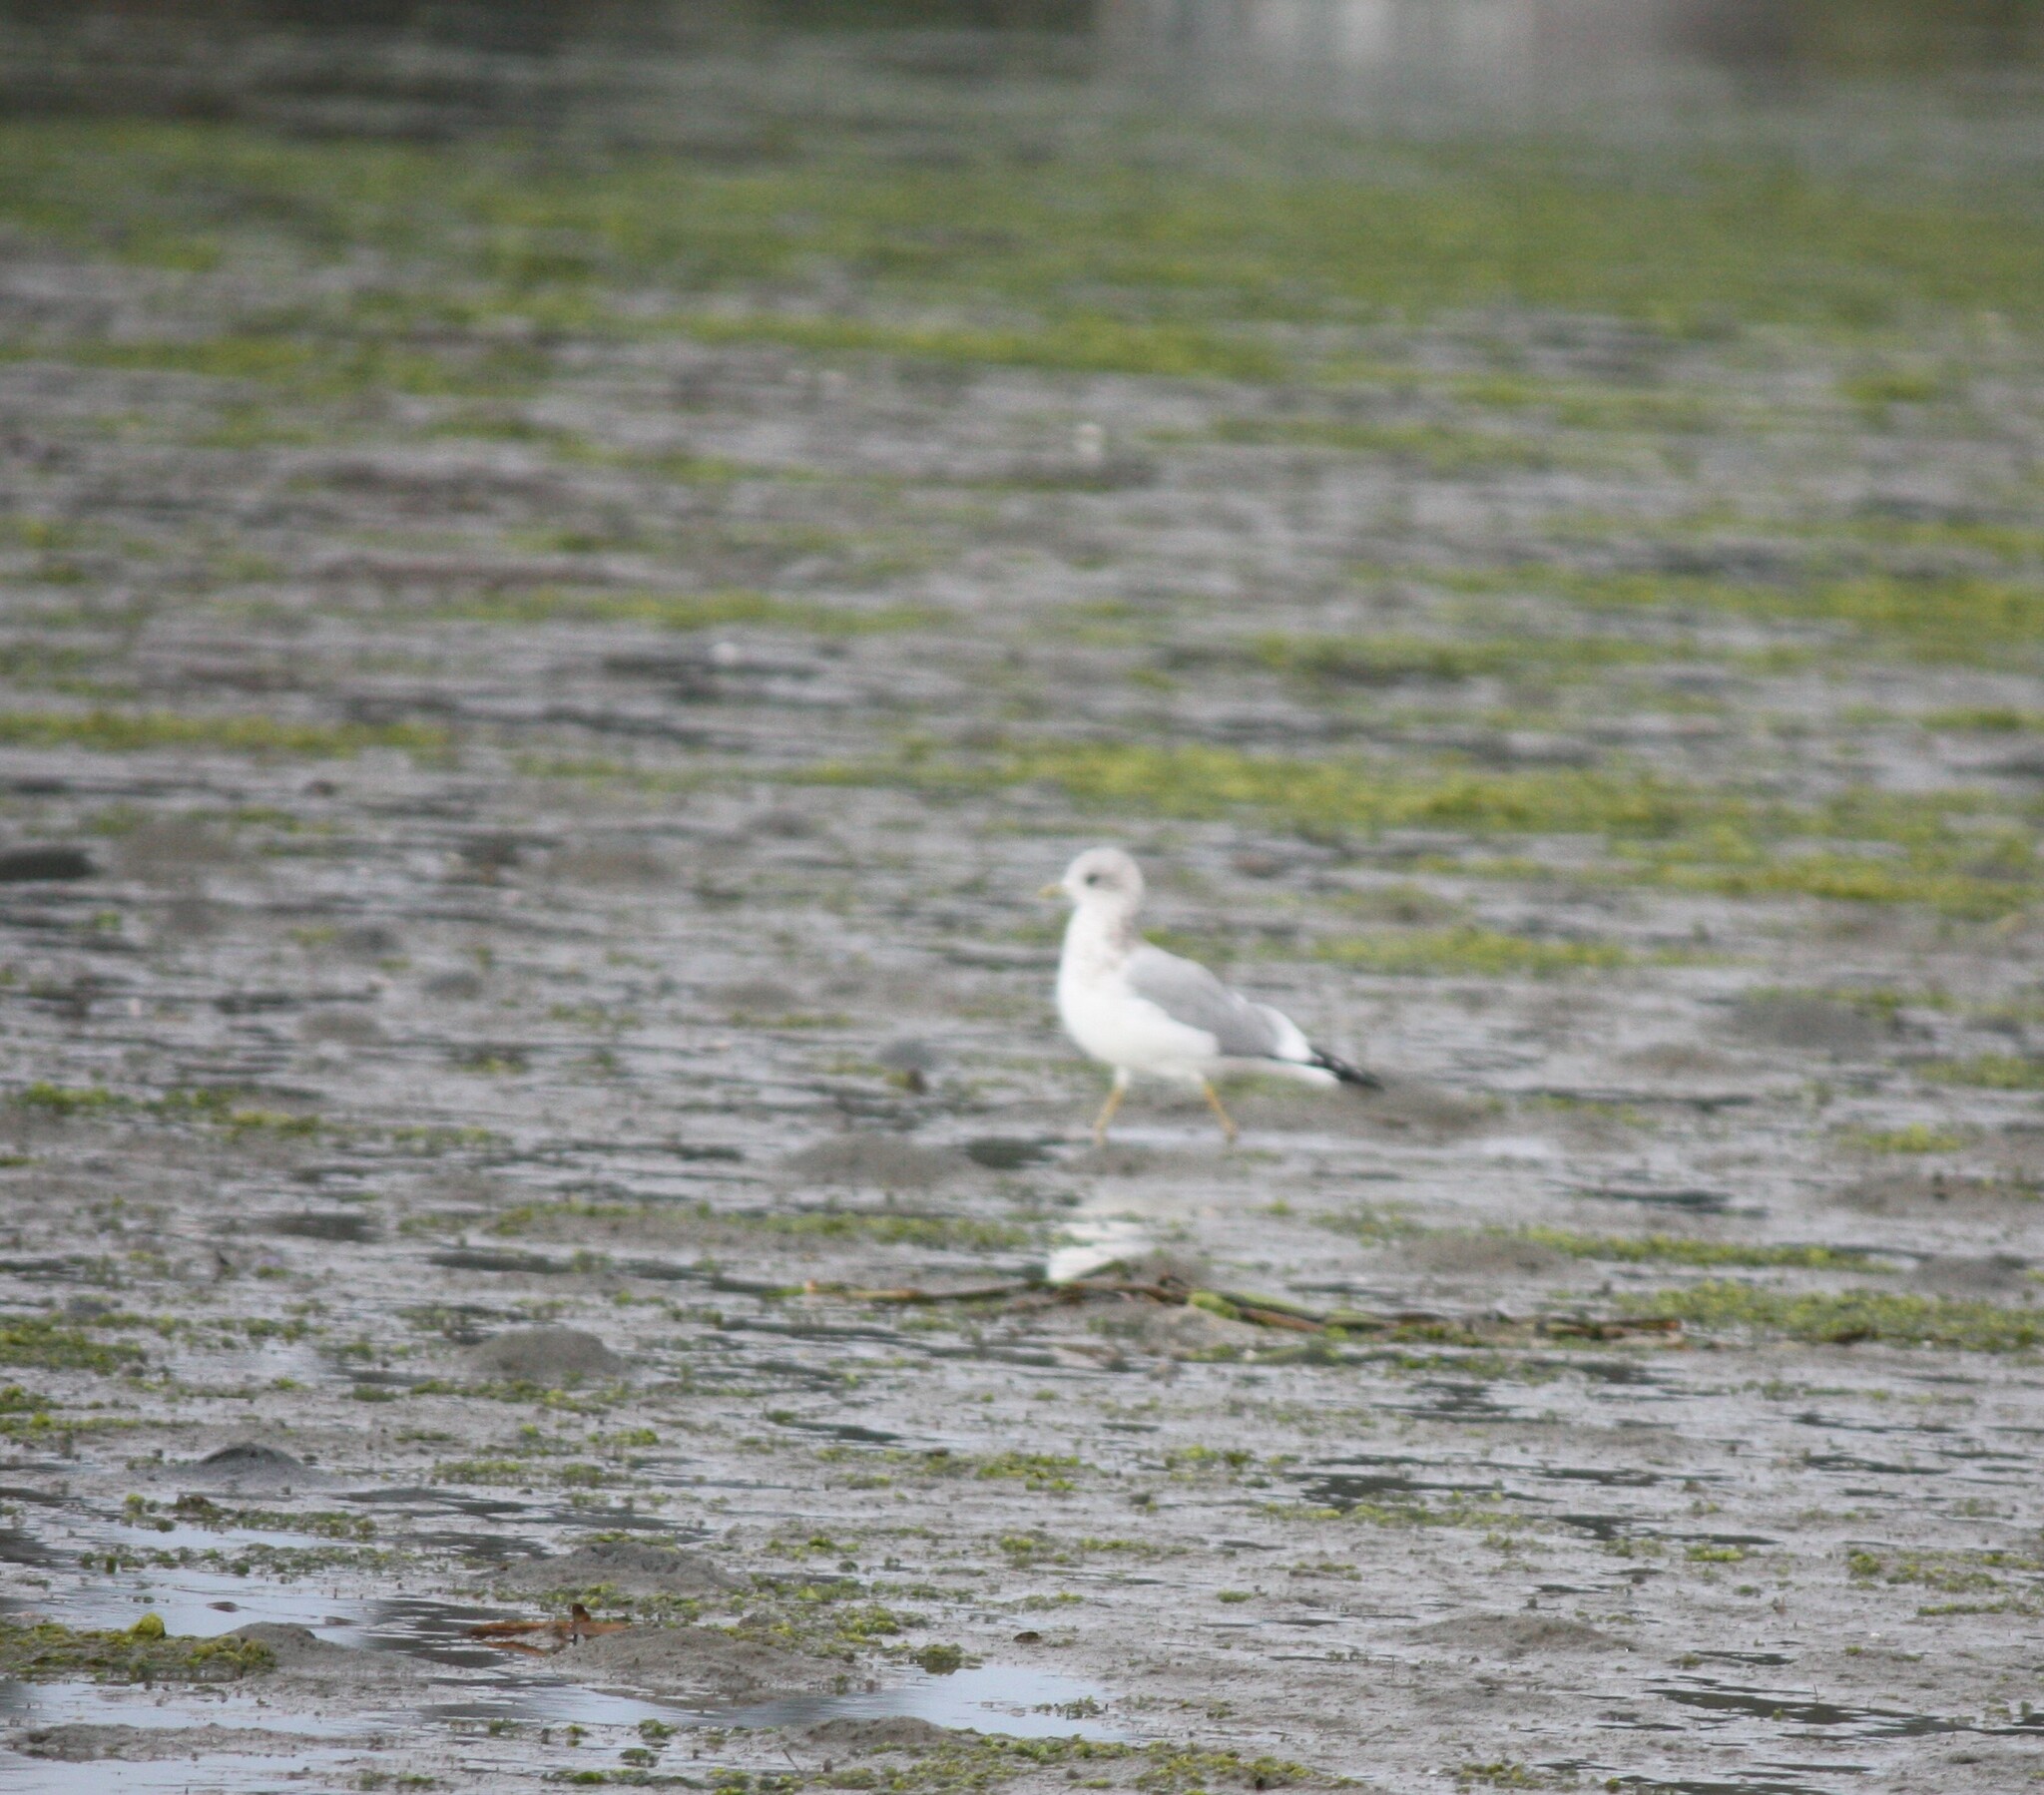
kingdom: Animalia
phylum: Chordata
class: Aves
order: Charadriiformes
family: Laridae
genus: Larus
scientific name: Larus brachyrhynchus
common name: Short-billed gull
